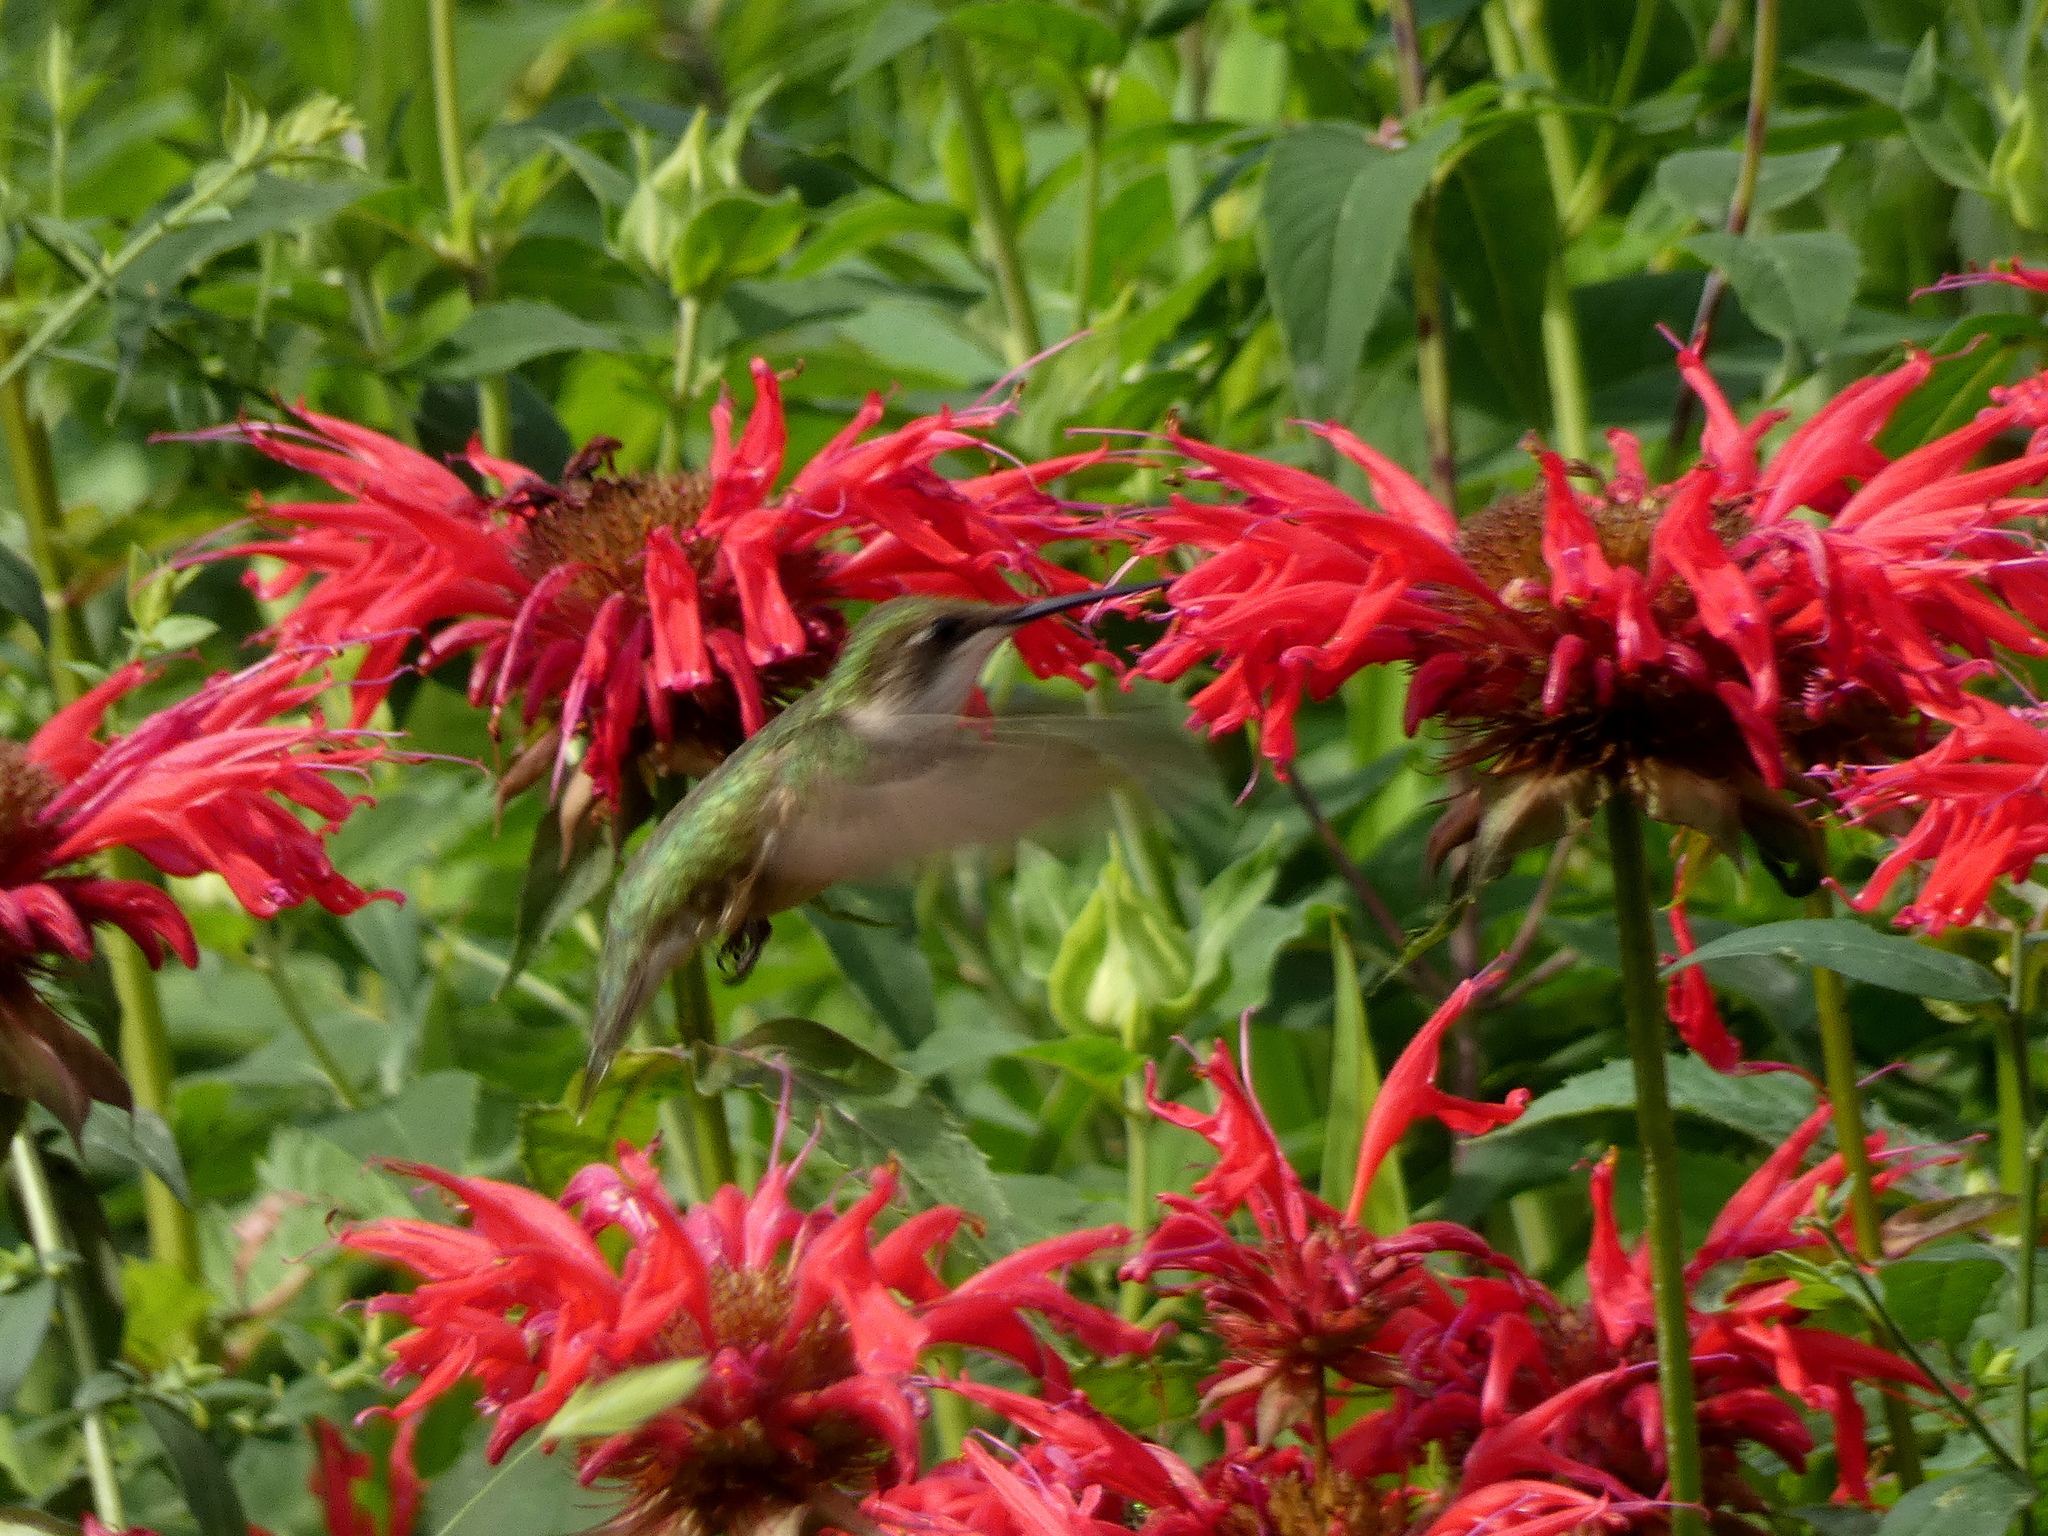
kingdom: Plantae
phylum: Tracheophyta
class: Magnoliopsida
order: Lamiales
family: Lamiaceae
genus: Monarda
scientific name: Monarda didyma
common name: Beebalm
